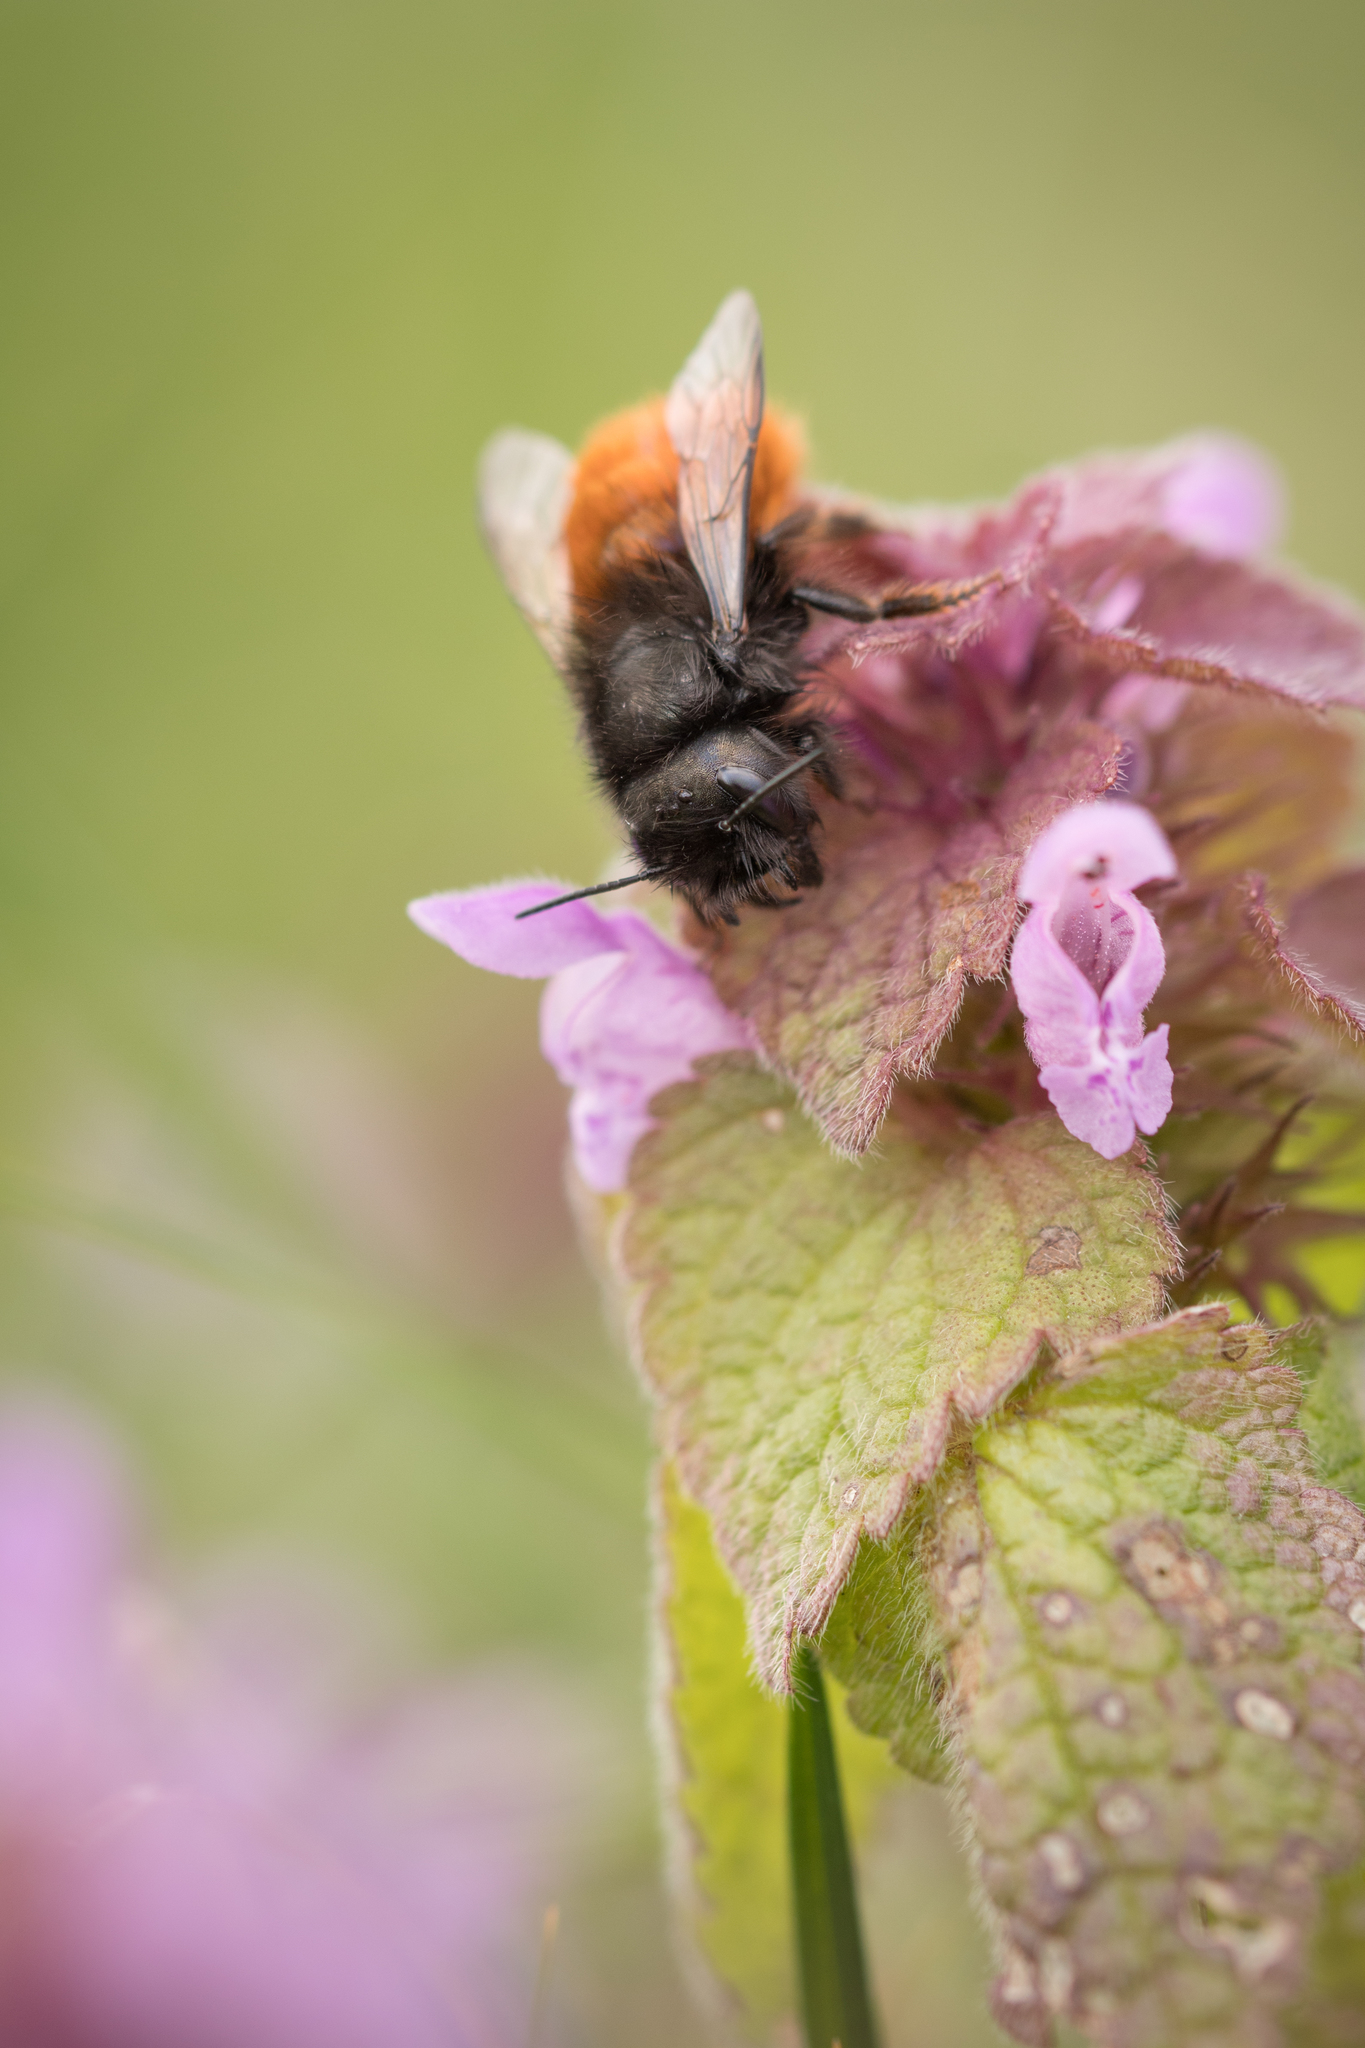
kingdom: Animalia
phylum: Arthropoda
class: Insecta
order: Hymenoptera
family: Megachilidae
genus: Osmia
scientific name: Osmia cornuta
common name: Mason bee
